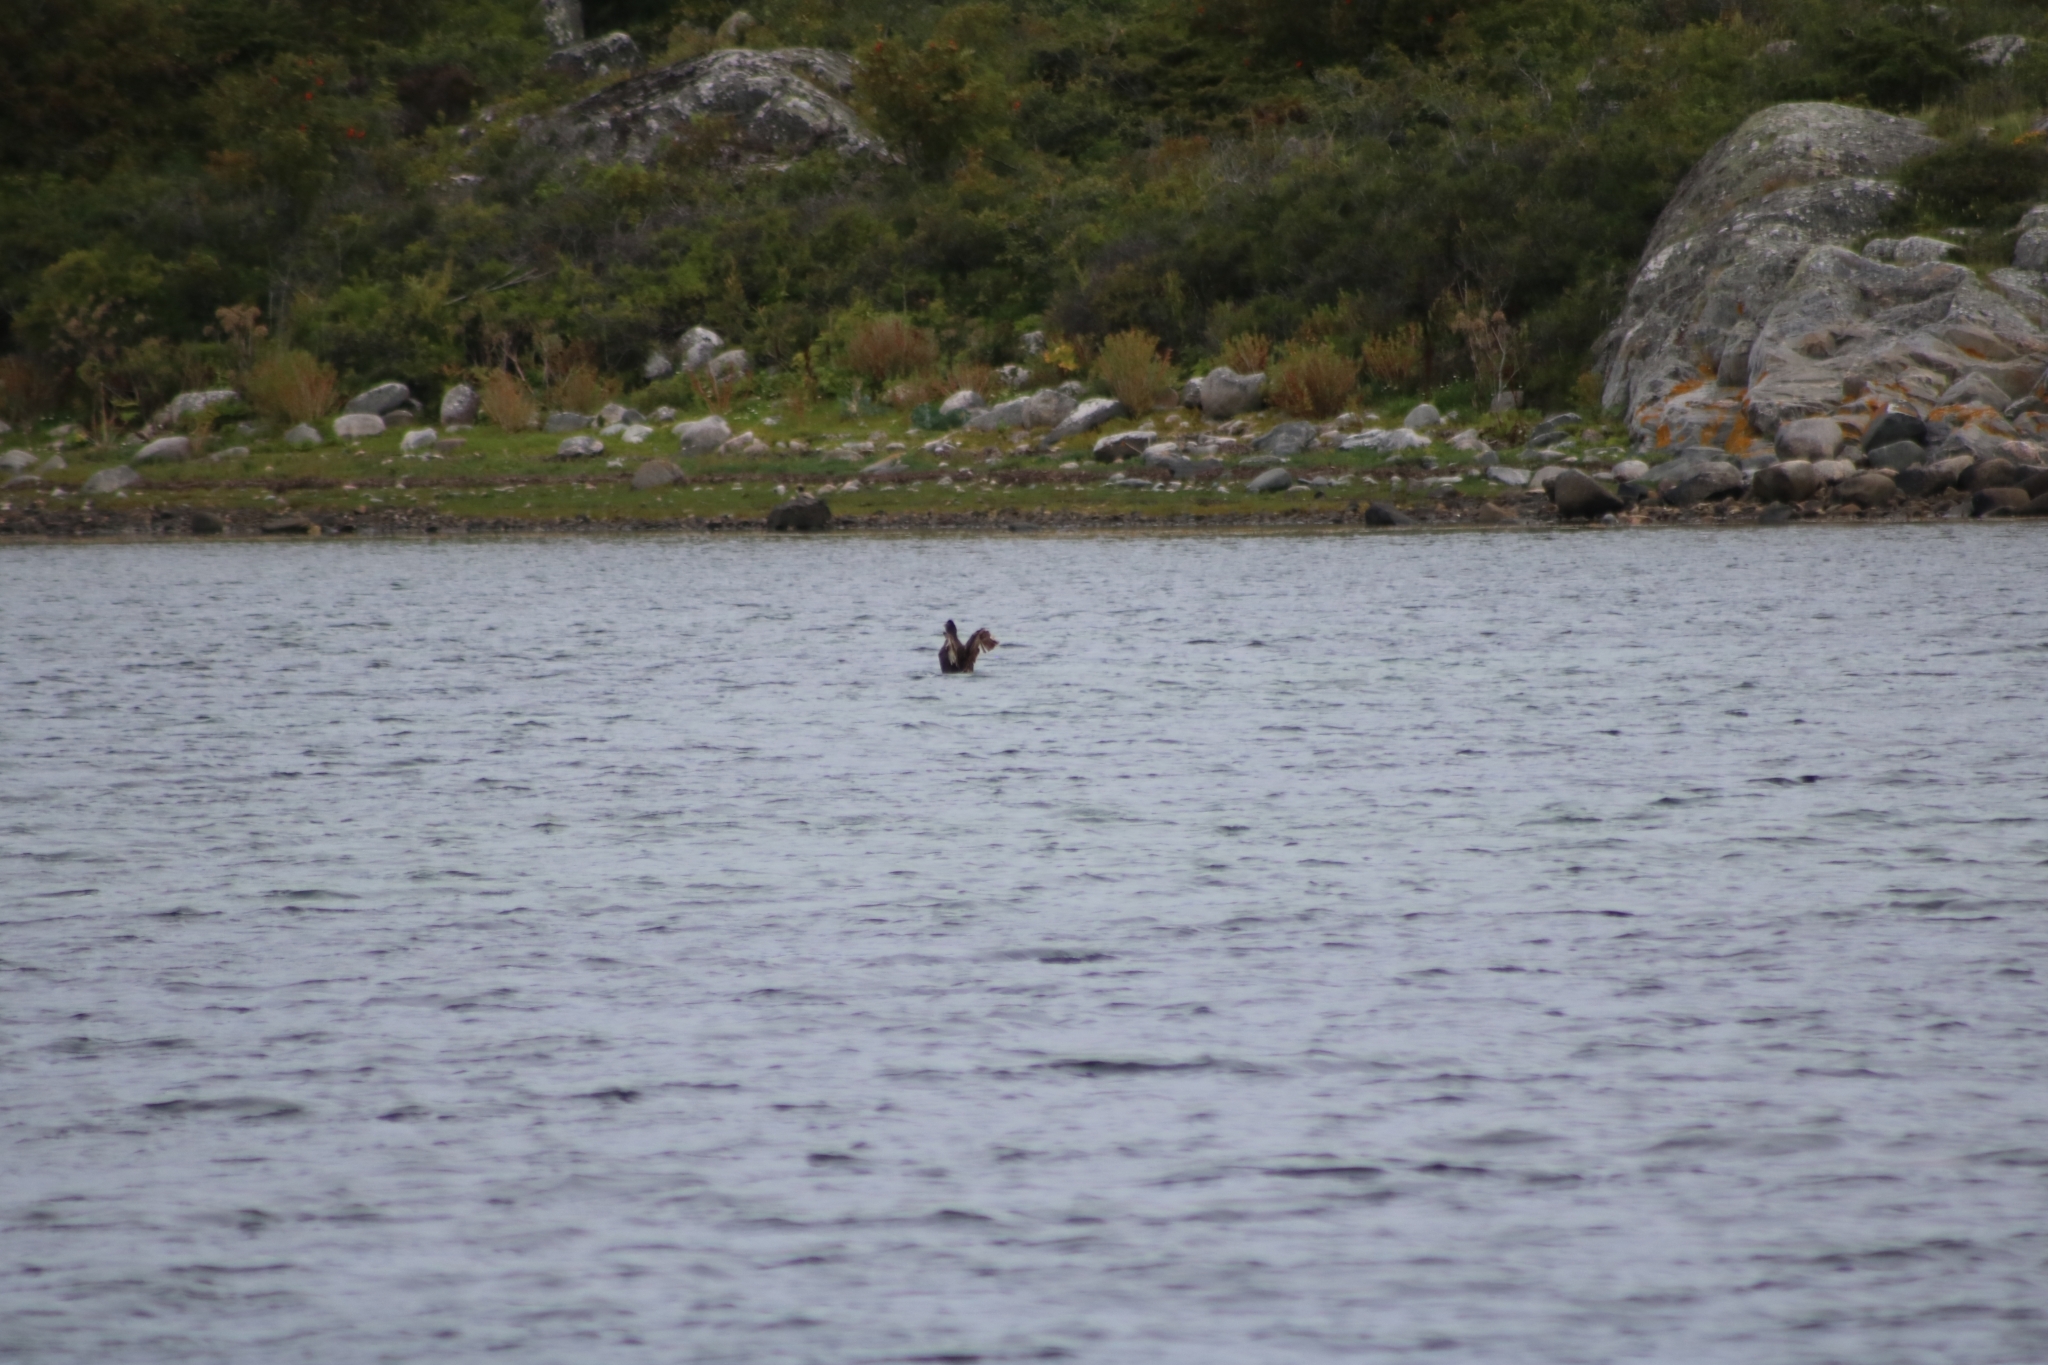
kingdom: Animalia
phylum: Chordata
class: Aves
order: Anseriformes
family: Anatidae
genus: Somateria
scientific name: Somateria mollissima
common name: Common eider
